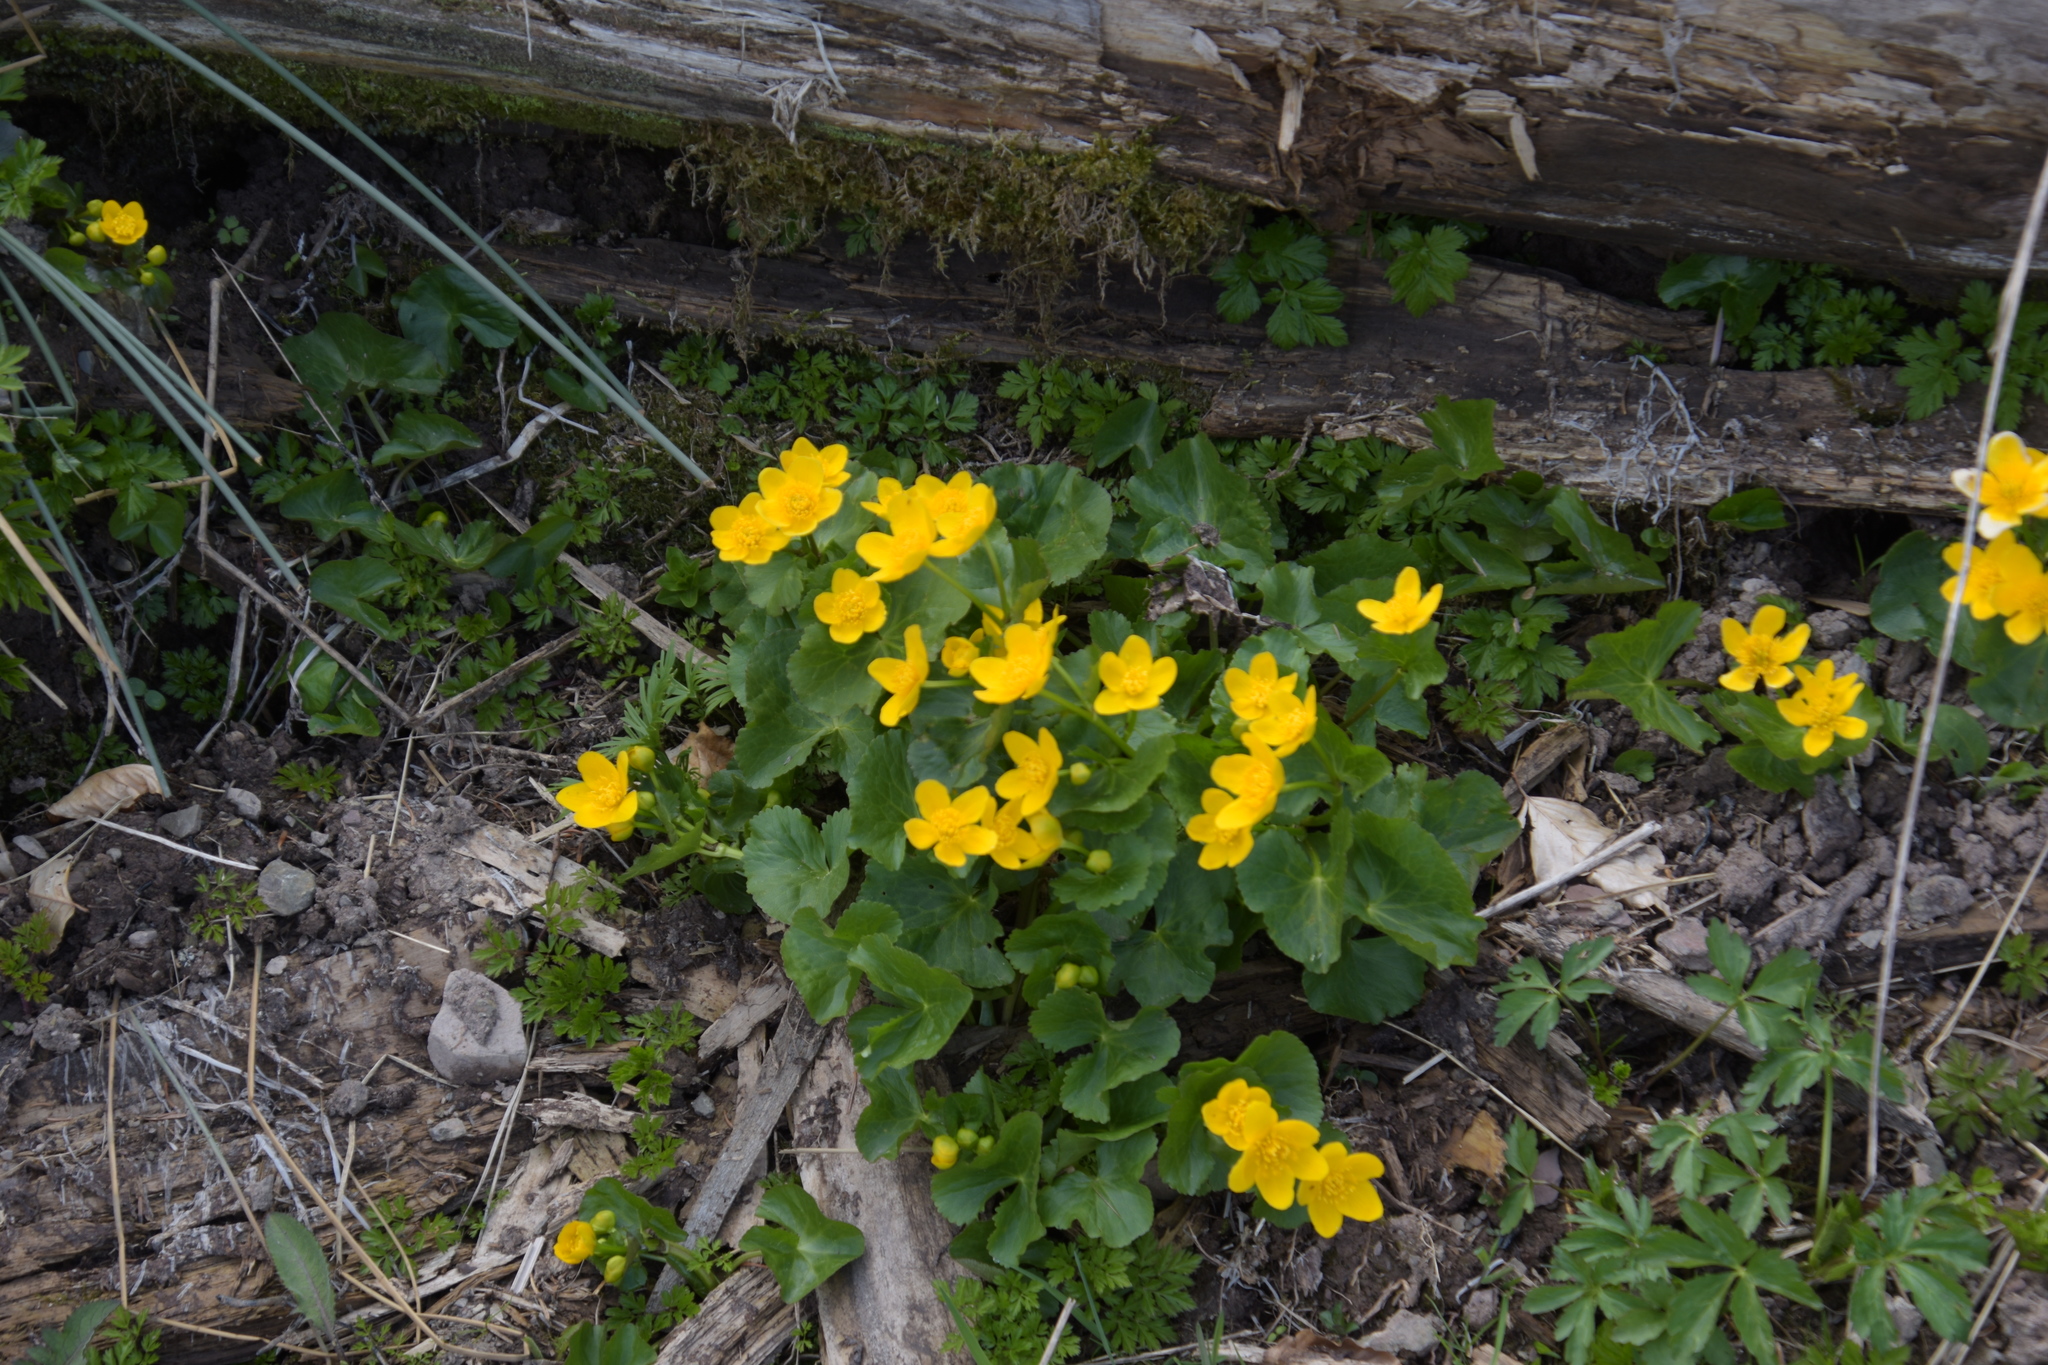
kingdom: Plantae
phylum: Tracheophyta
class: Magnoliopsida
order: Ranunculales
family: Ranunculaceae
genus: Caltha
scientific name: Caltha palustris
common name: Marsh marigold
